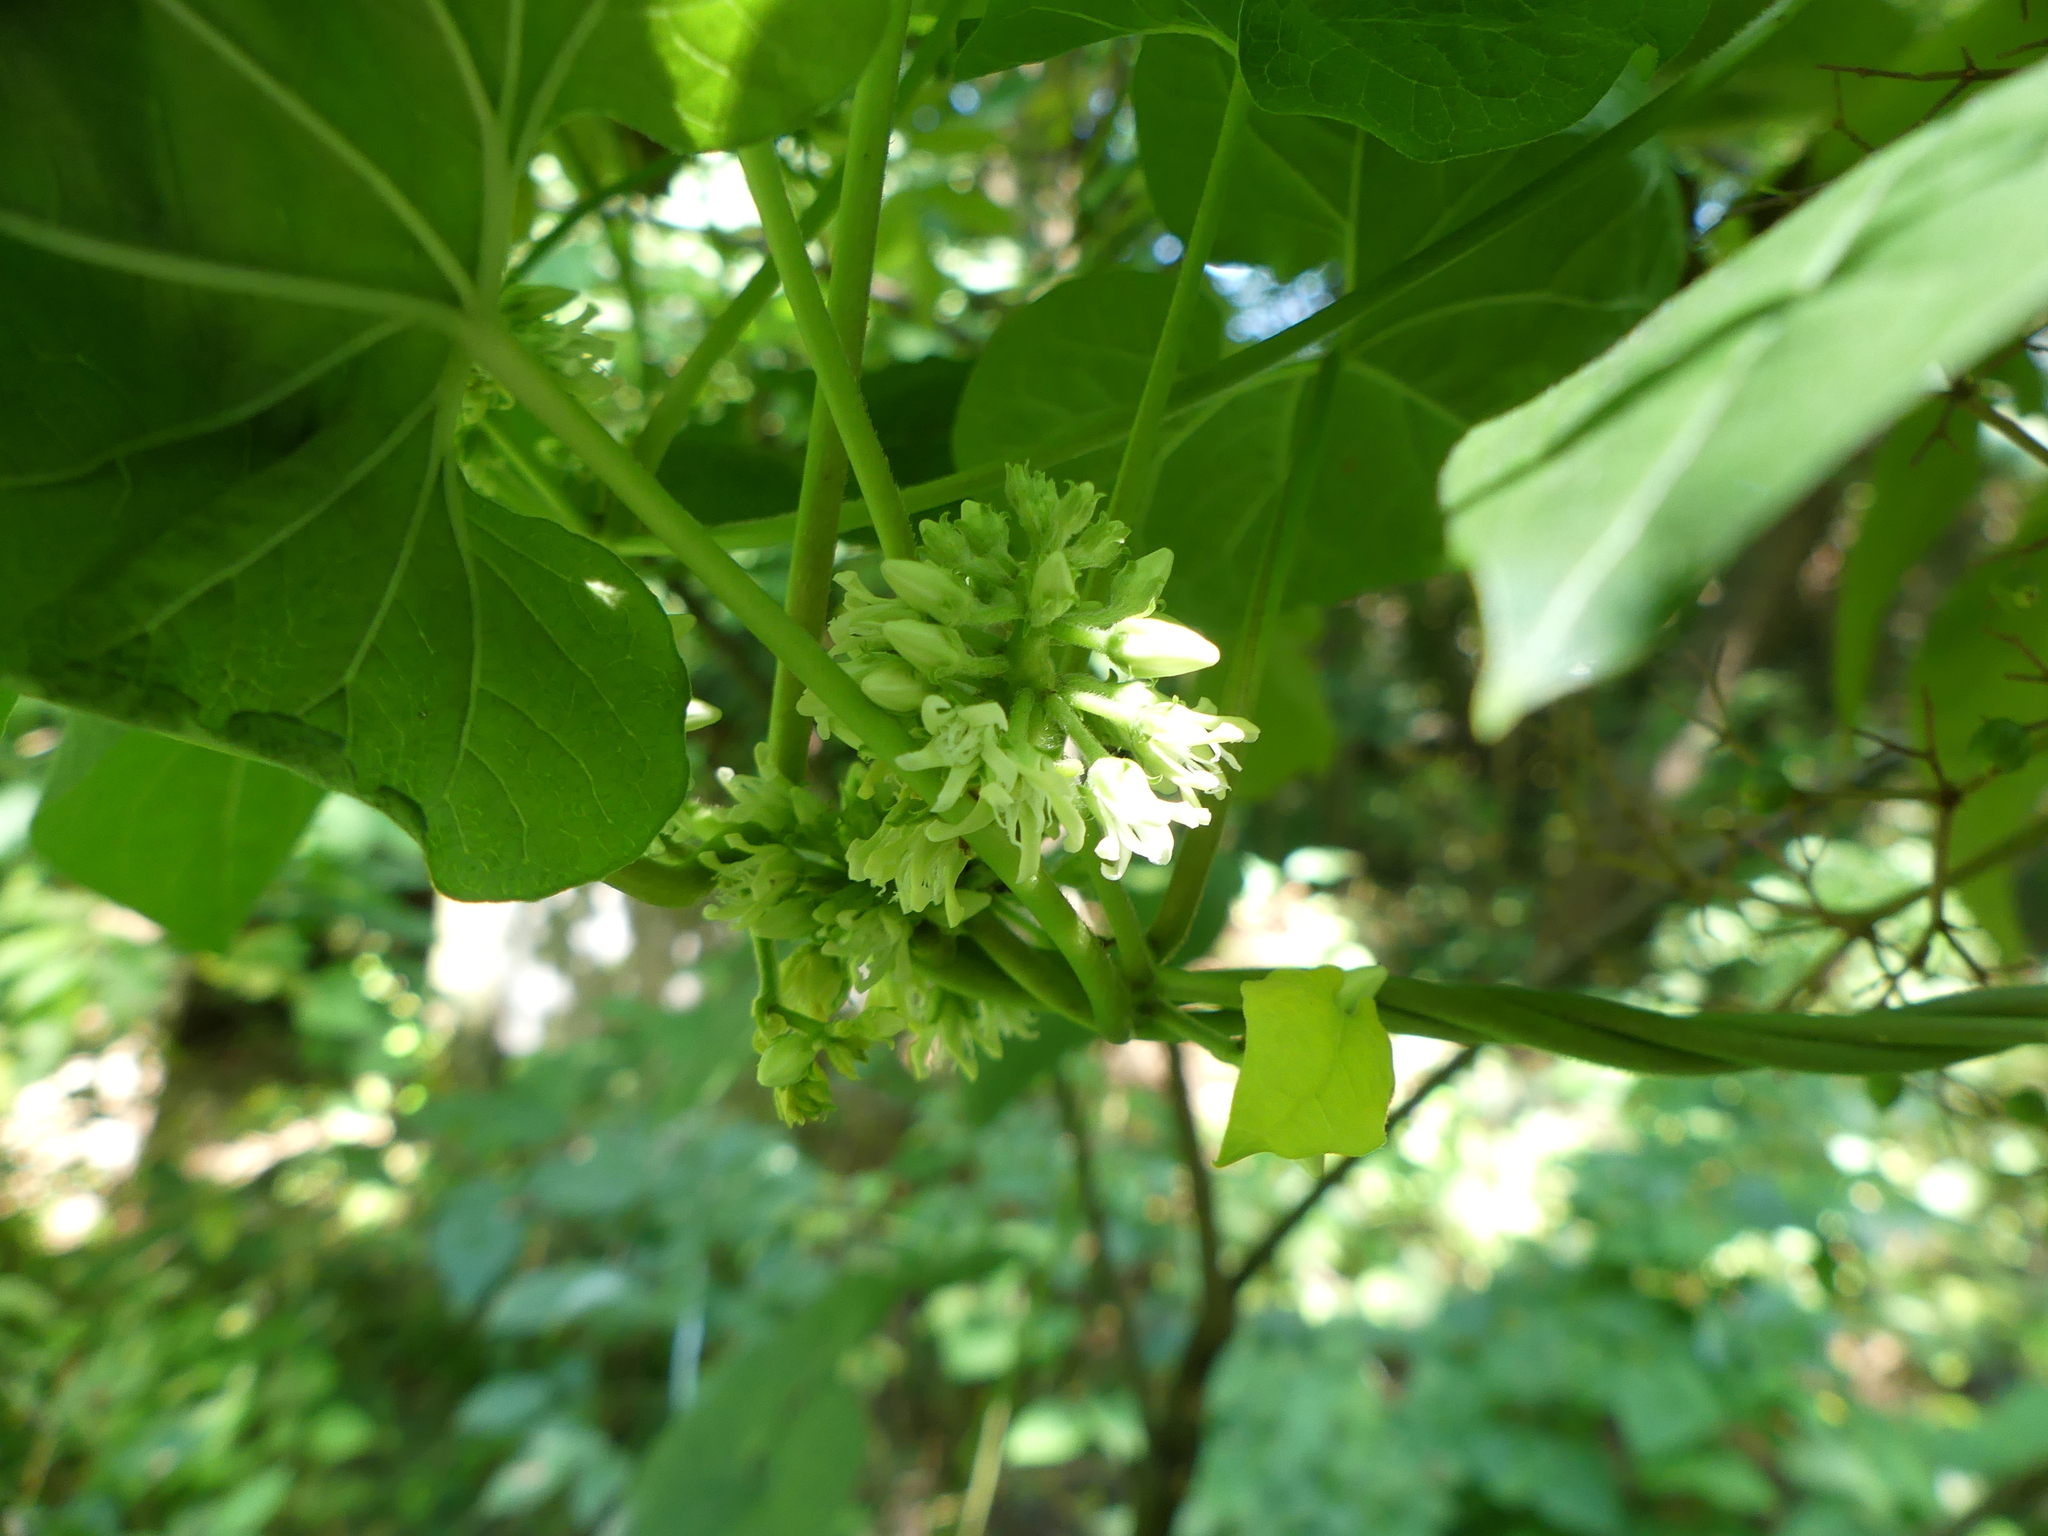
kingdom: Plantae
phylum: Tracheophyta
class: Magnoliopsida
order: Gentianales
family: Apocynaceae
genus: Cynanchum
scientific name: Cynanchum laeve
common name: Sandvine
